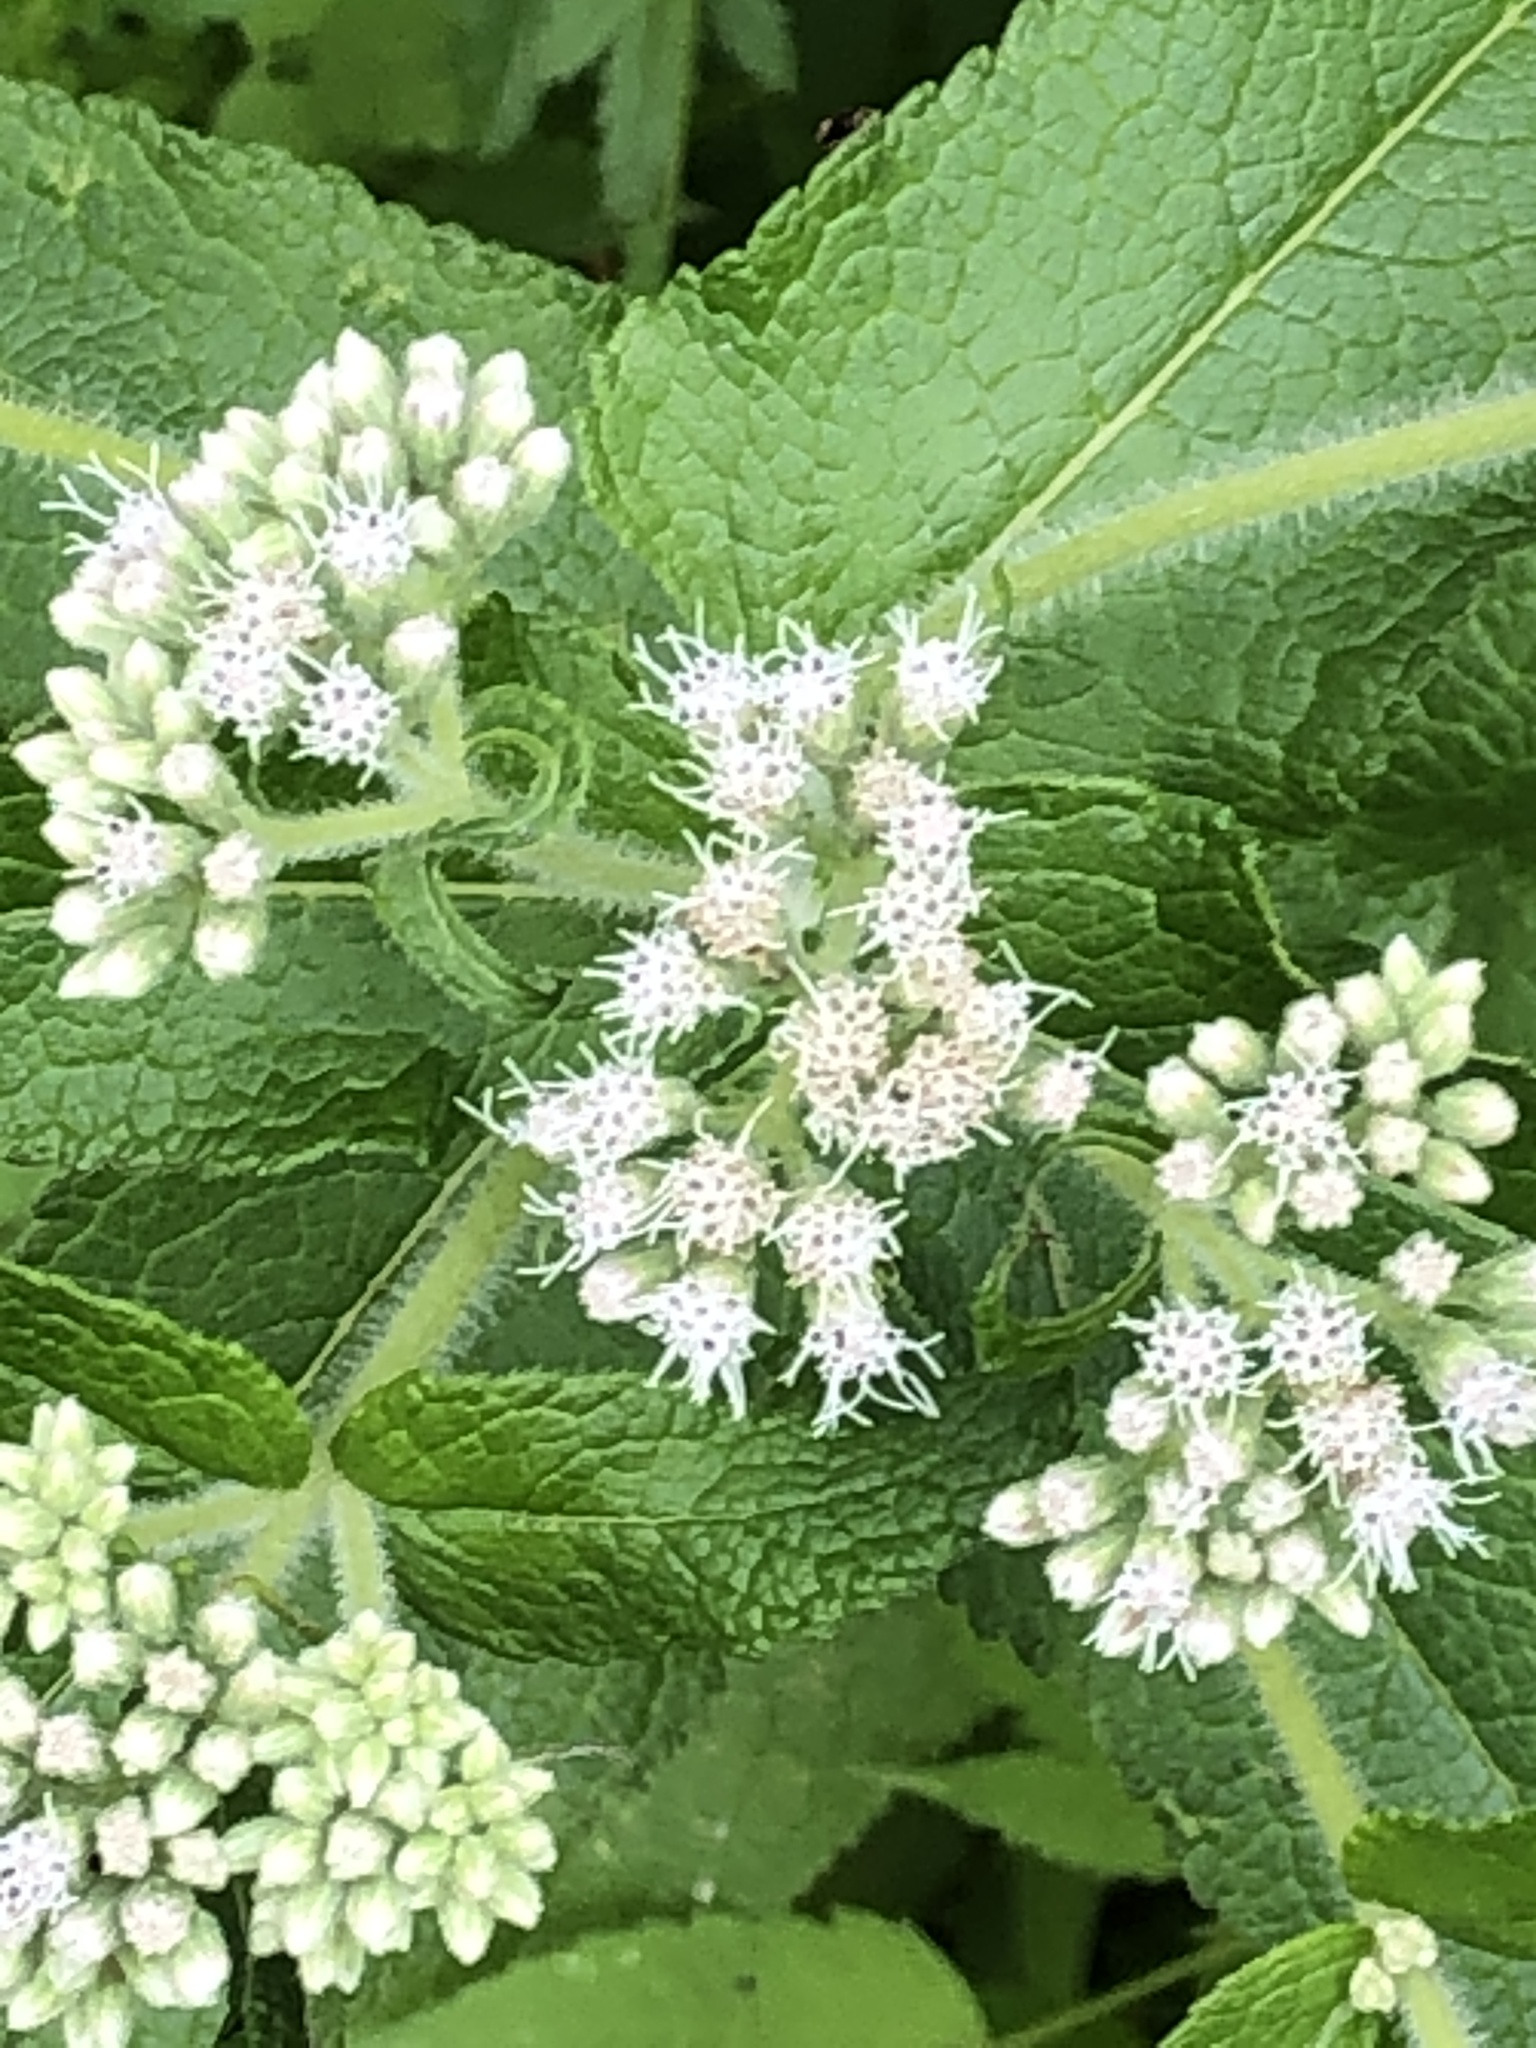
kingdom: Plantae
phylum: Tracheophyta
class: Magnoliopsida
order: Asterales
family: Asteraceae
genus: Eupatorium
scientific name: Eupatorium perfoliatum
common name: Boneset
